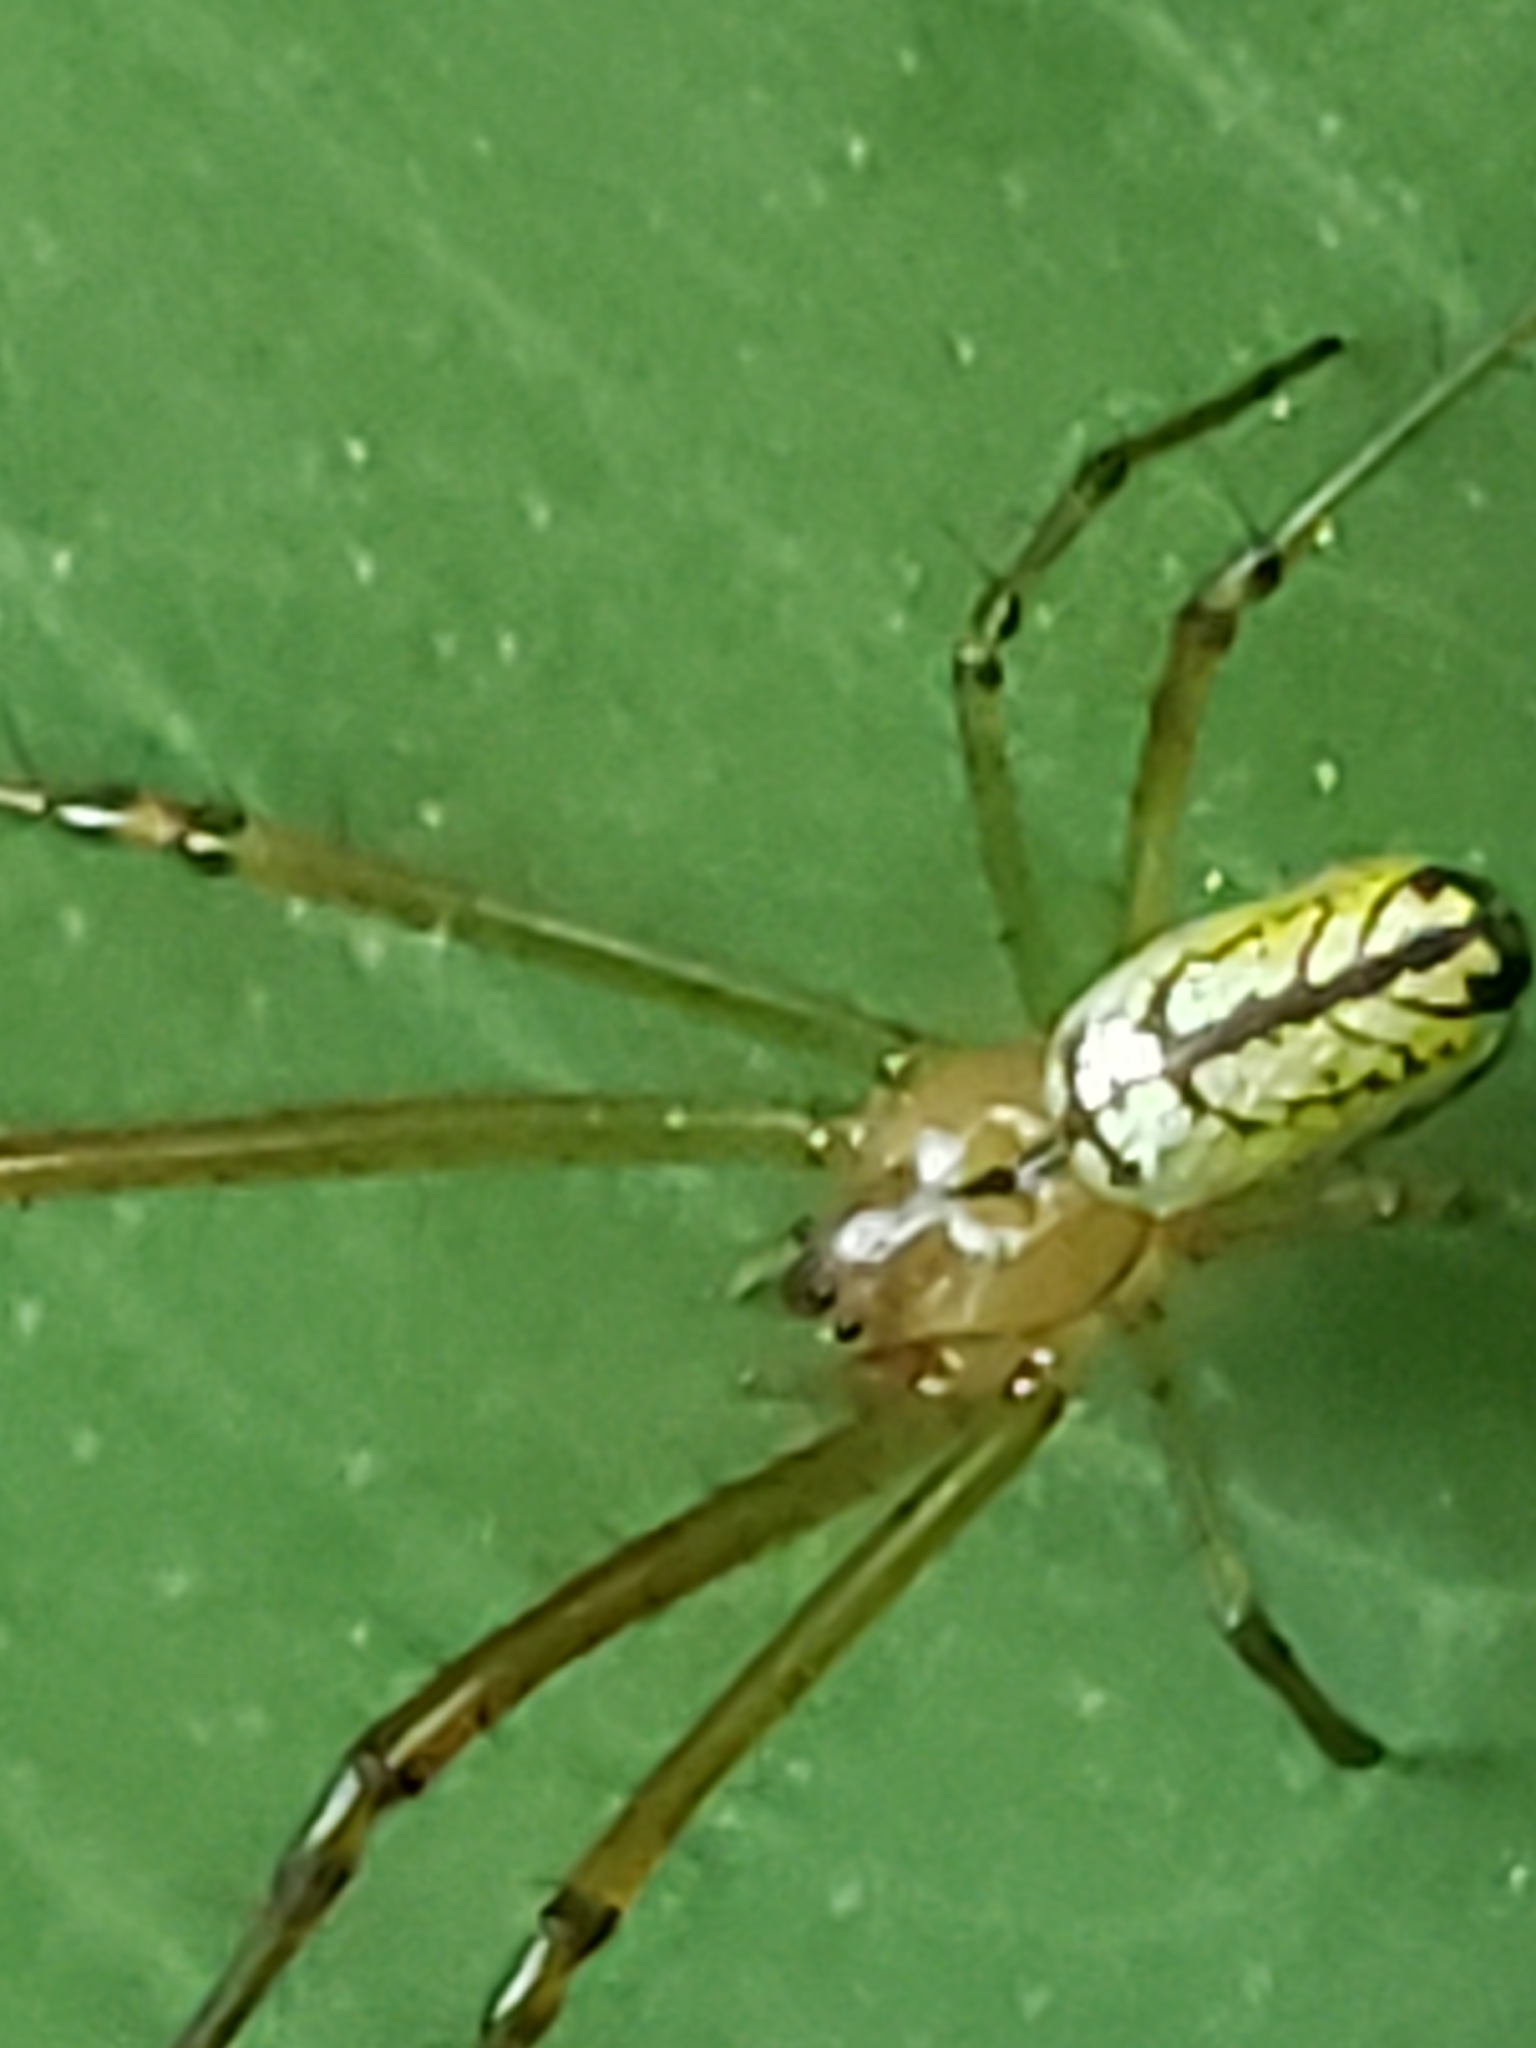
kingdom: Animalia
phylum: Arthropoda
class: Arachnida
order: Araneae
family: Tetragnathidae
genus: Leucauge
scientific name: Leucauge venusta
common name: Longjawed orb weavers
